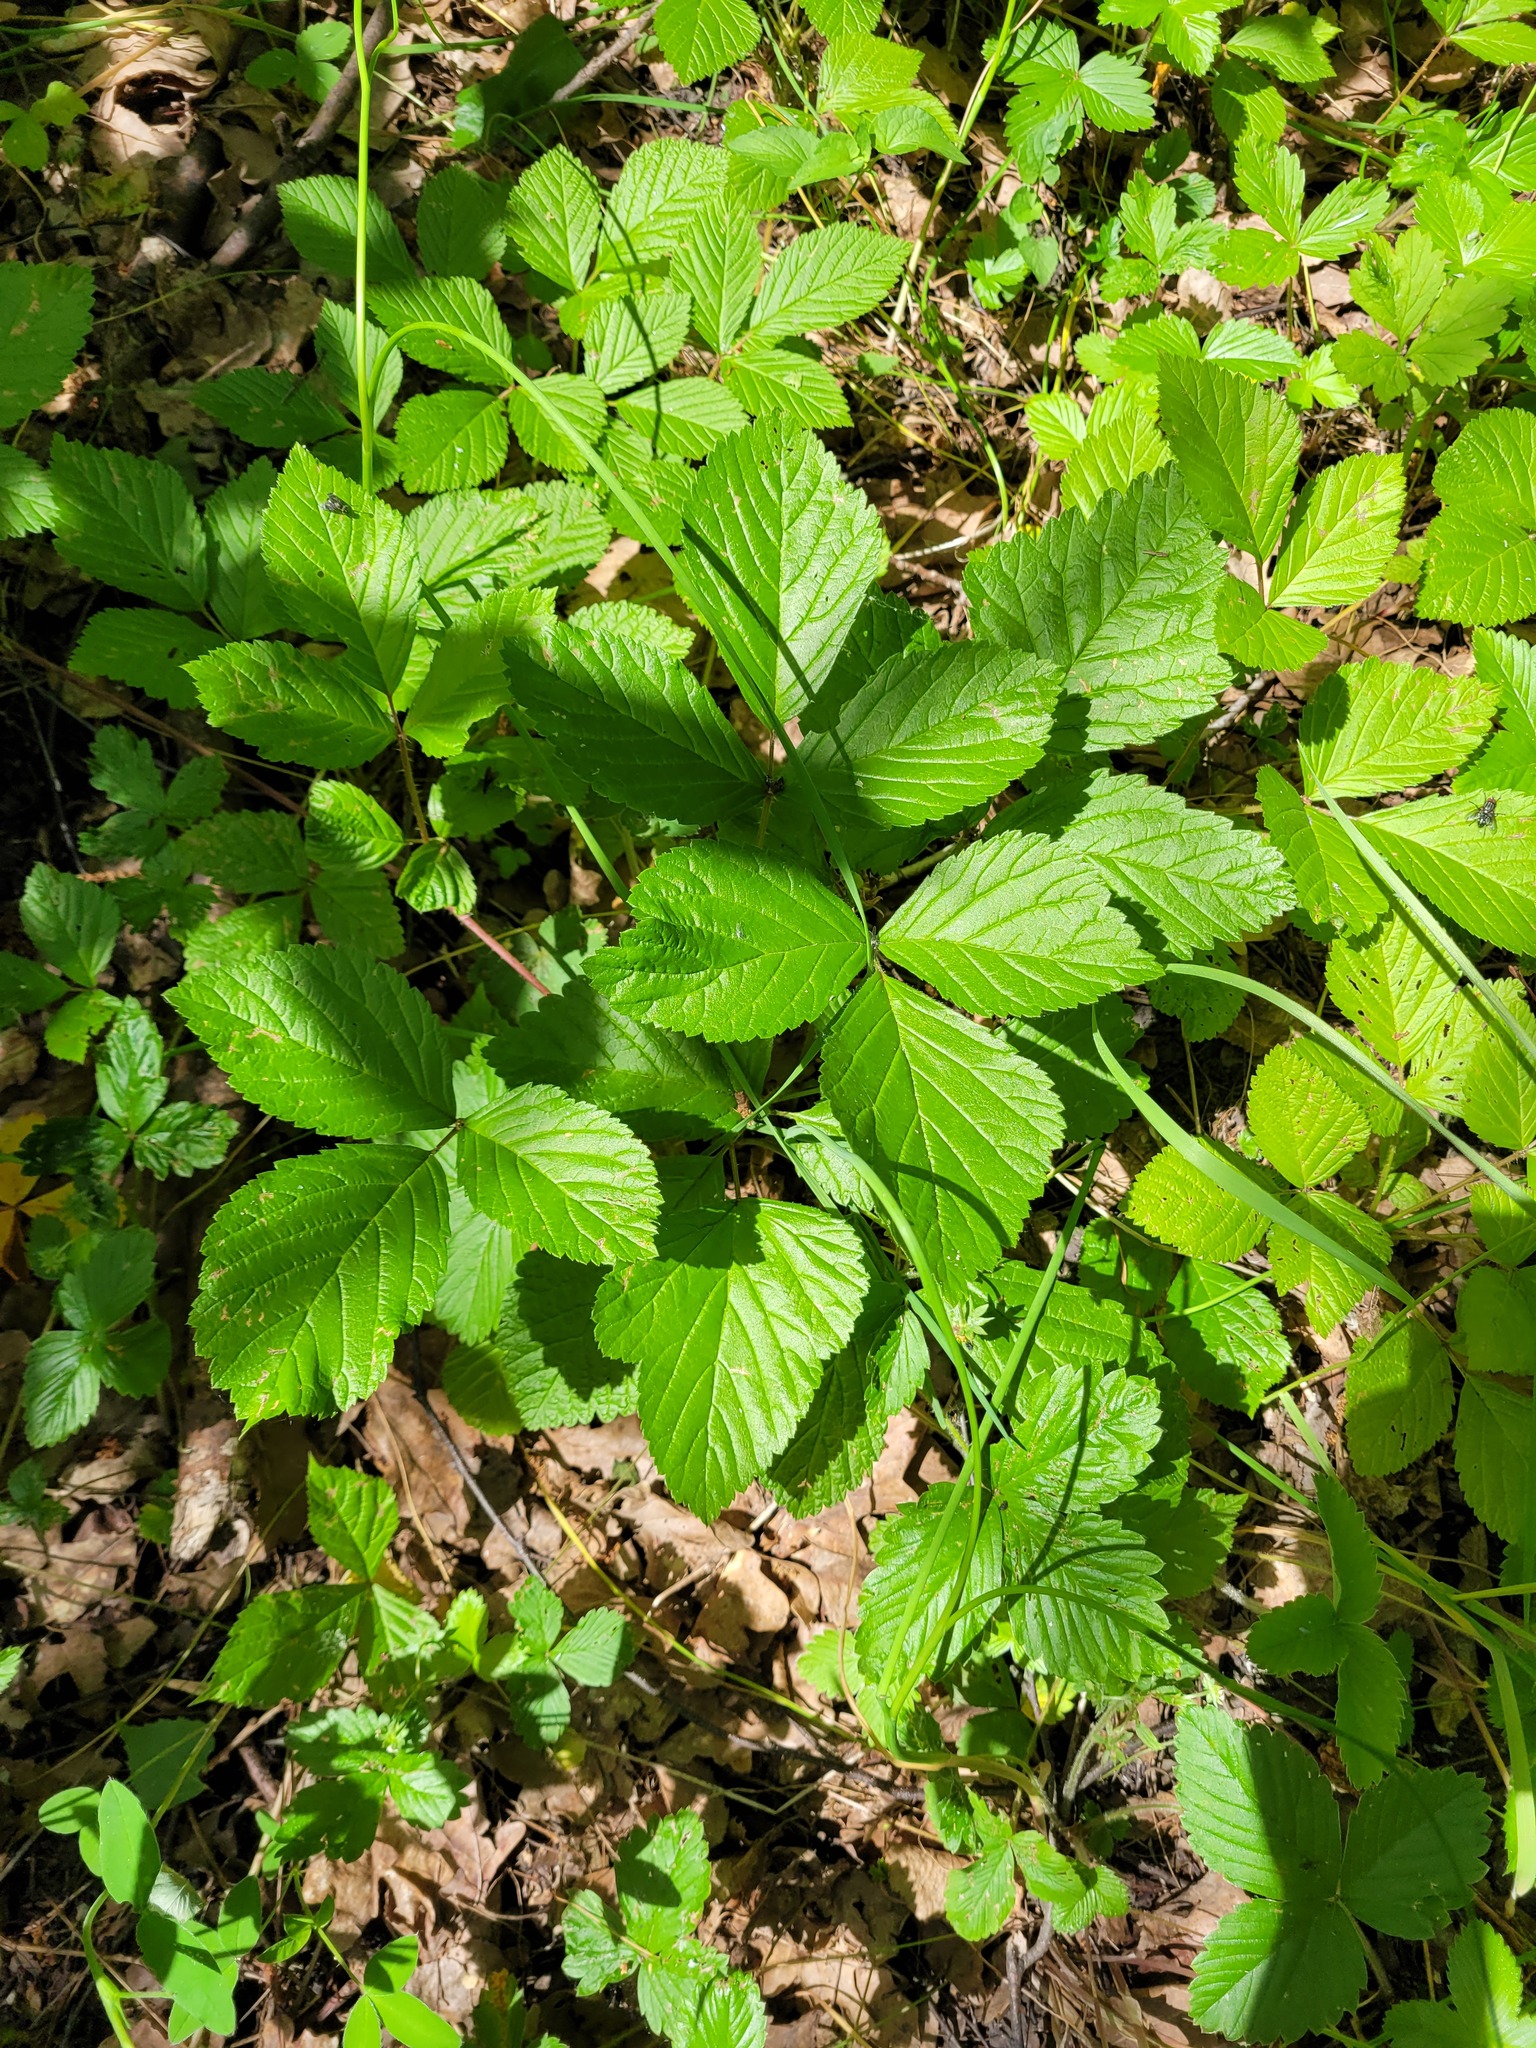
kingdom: Plantae
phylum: Tracheophyta
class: Magnoliopsida
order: Rosales
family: Rosaceae
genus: Rubus
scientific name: Rubus saxatilis
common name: Stone bramble
